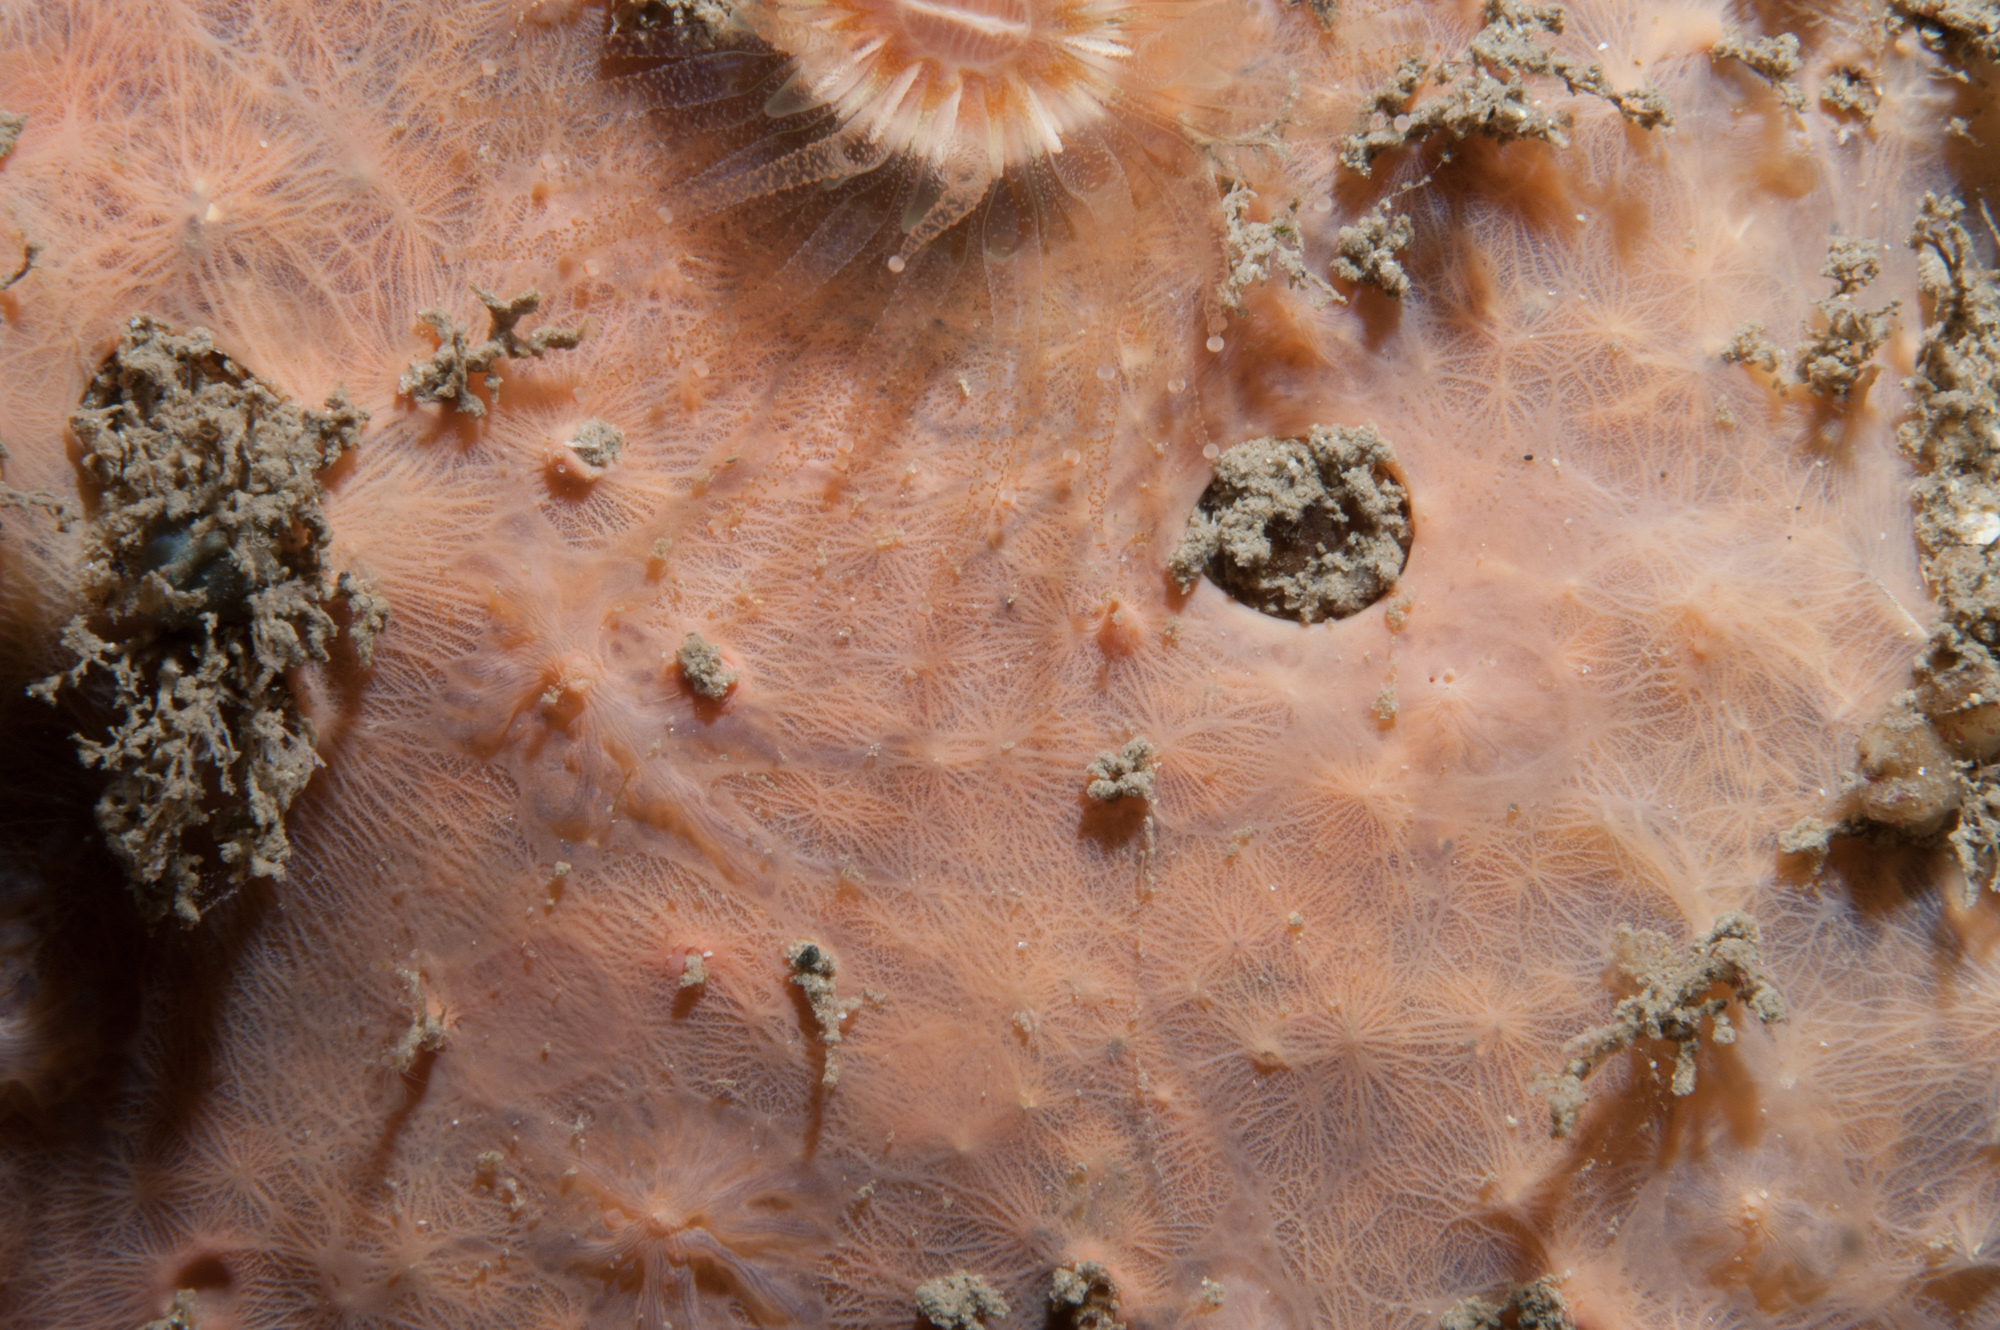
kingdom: Animalia
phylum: Porifera
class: Demospongiae
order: Verongiida
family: Ianthellidae
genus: Hexadella
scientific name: Hexadella topsenti
